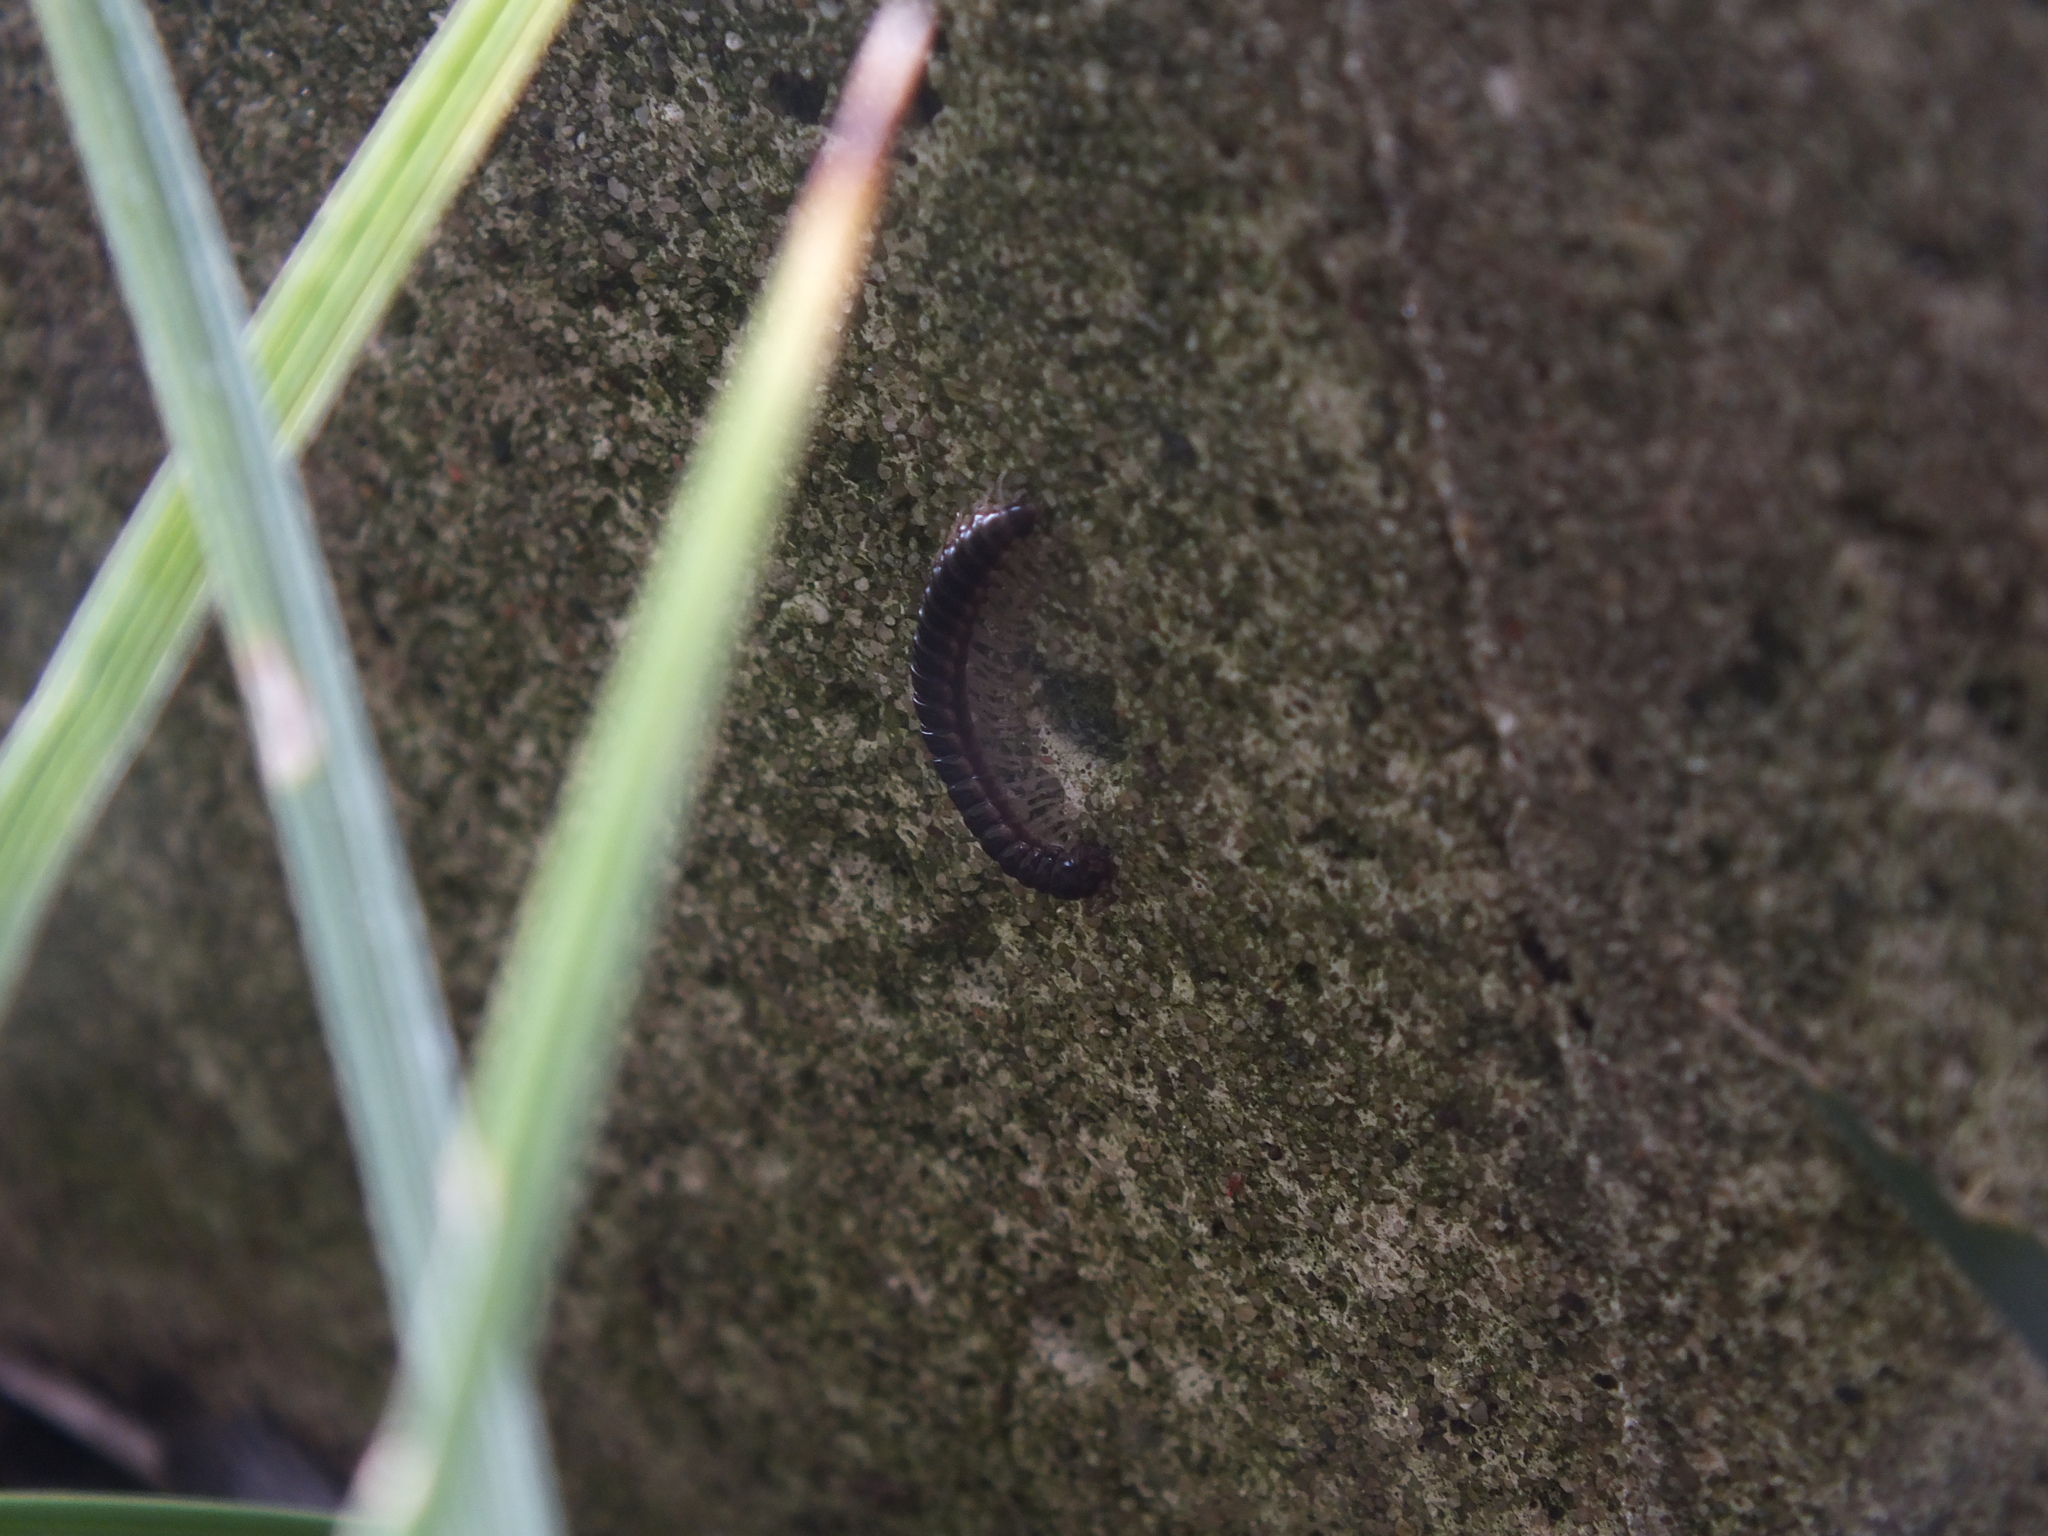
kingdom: Animalia
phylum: Arthropoda
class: Diplopoda
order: Polydesmida
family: Paradoxosomatidae
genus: Oxidus
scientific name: Oxidus gracilis
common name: Greenhouse millipede
